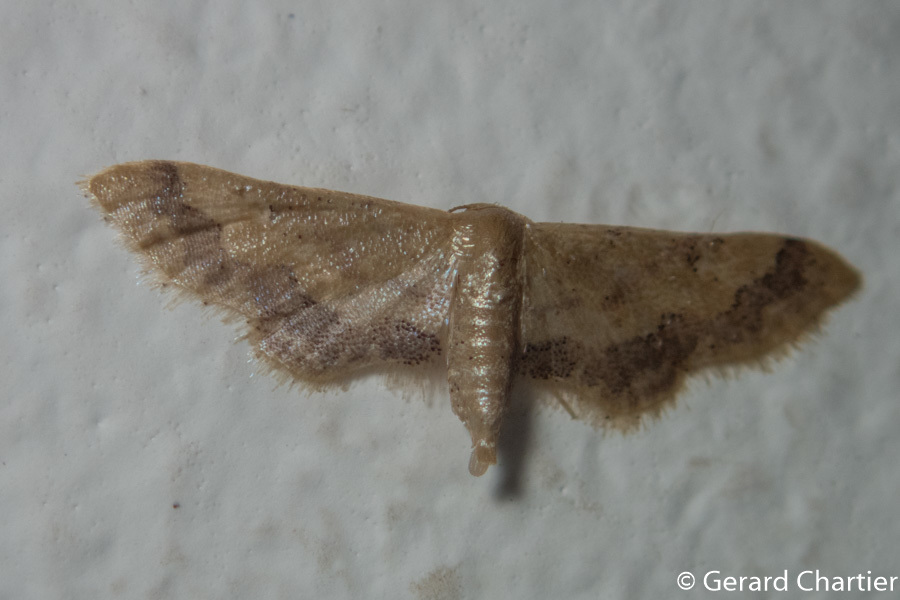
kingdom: Animalia
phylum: Arthropoda
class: Insecta
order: Lepidoptera
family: Geometridae
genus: Idaea
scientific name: Idaea violacea
